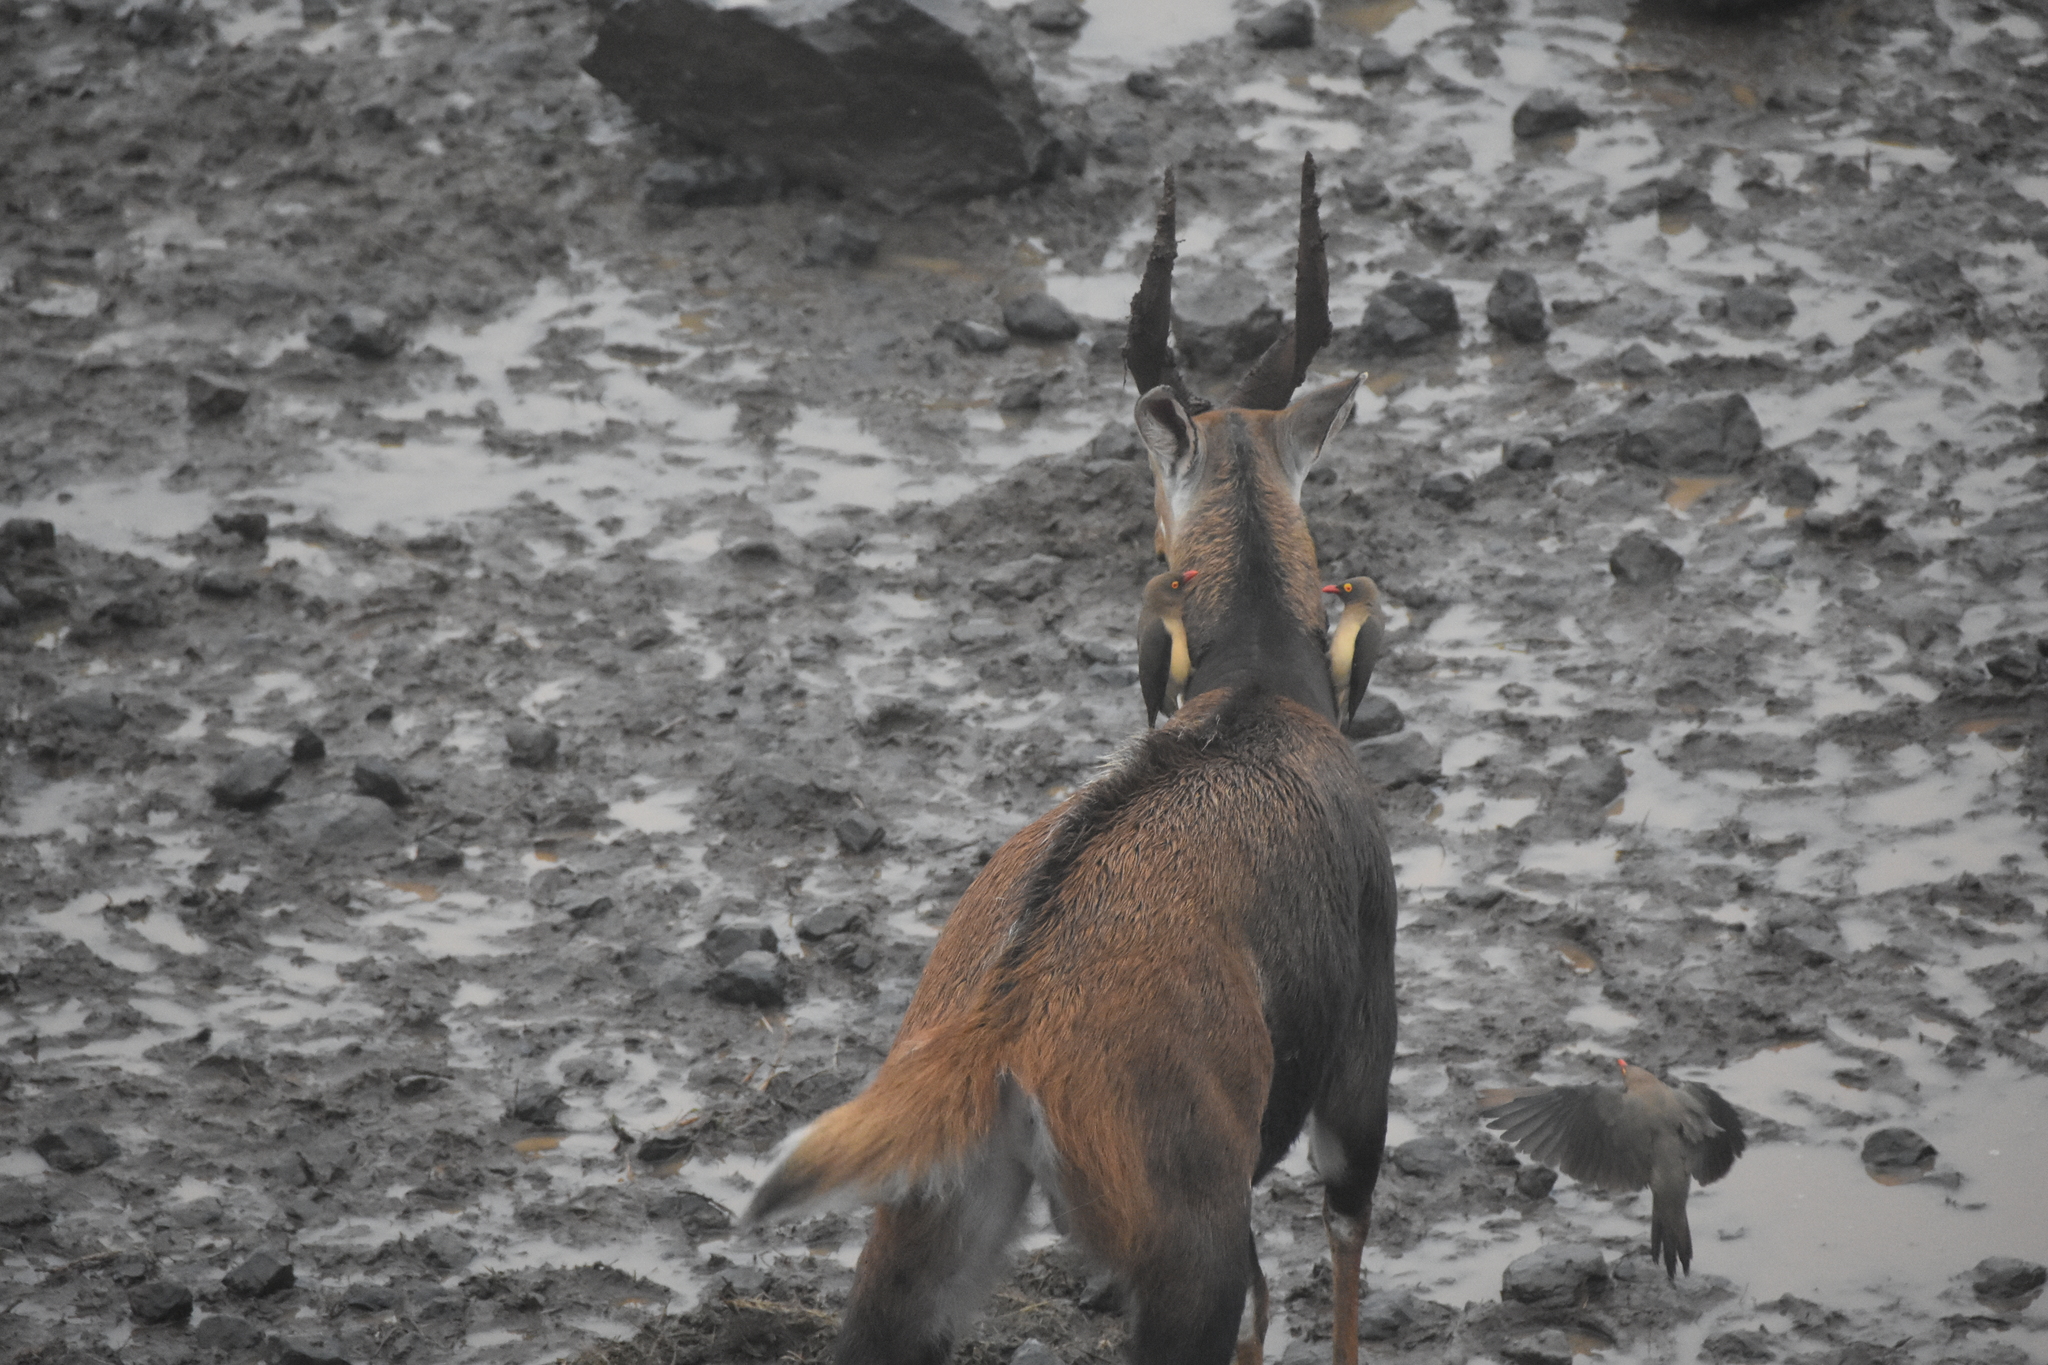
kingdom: Animalia
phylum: Chordata
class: Aves
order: Passeriformes
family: Buphagidae
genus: Buphagus
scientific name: Buphagus erythrorhynchus
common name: Red-billed oxpecker
